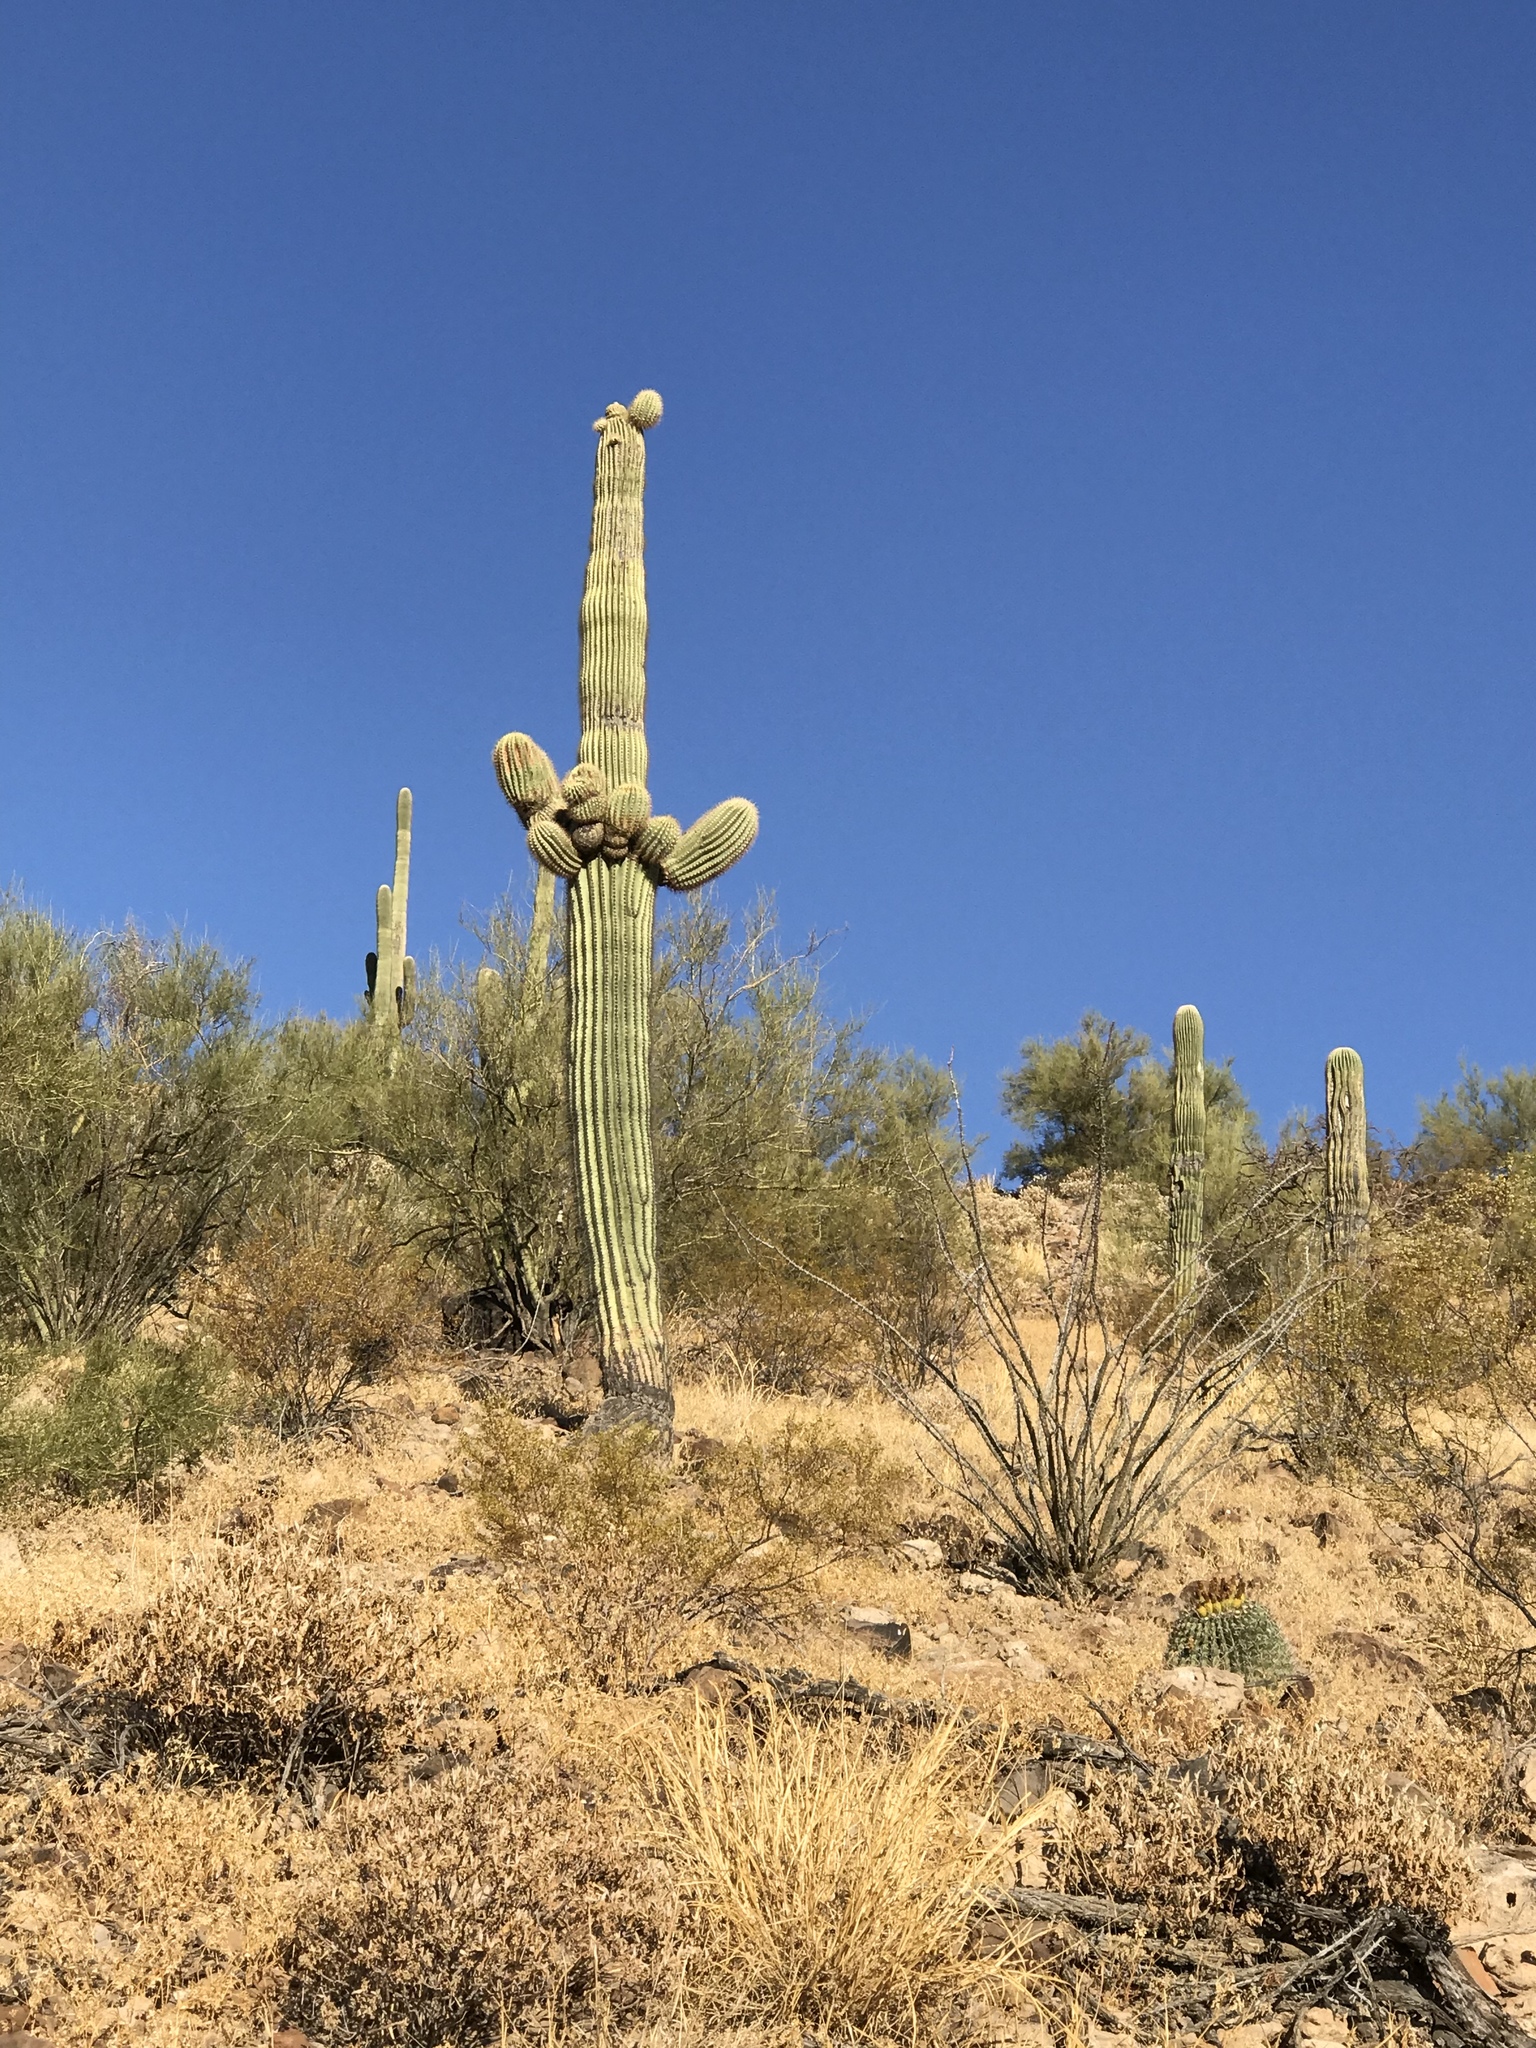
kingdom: Plantae
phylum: Tracheophyta
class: Magnoliopsida
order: Caryophyllales
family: Cactaceae
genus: Carnegiea
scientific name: Carnegiea gigantea
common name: Saguaro
